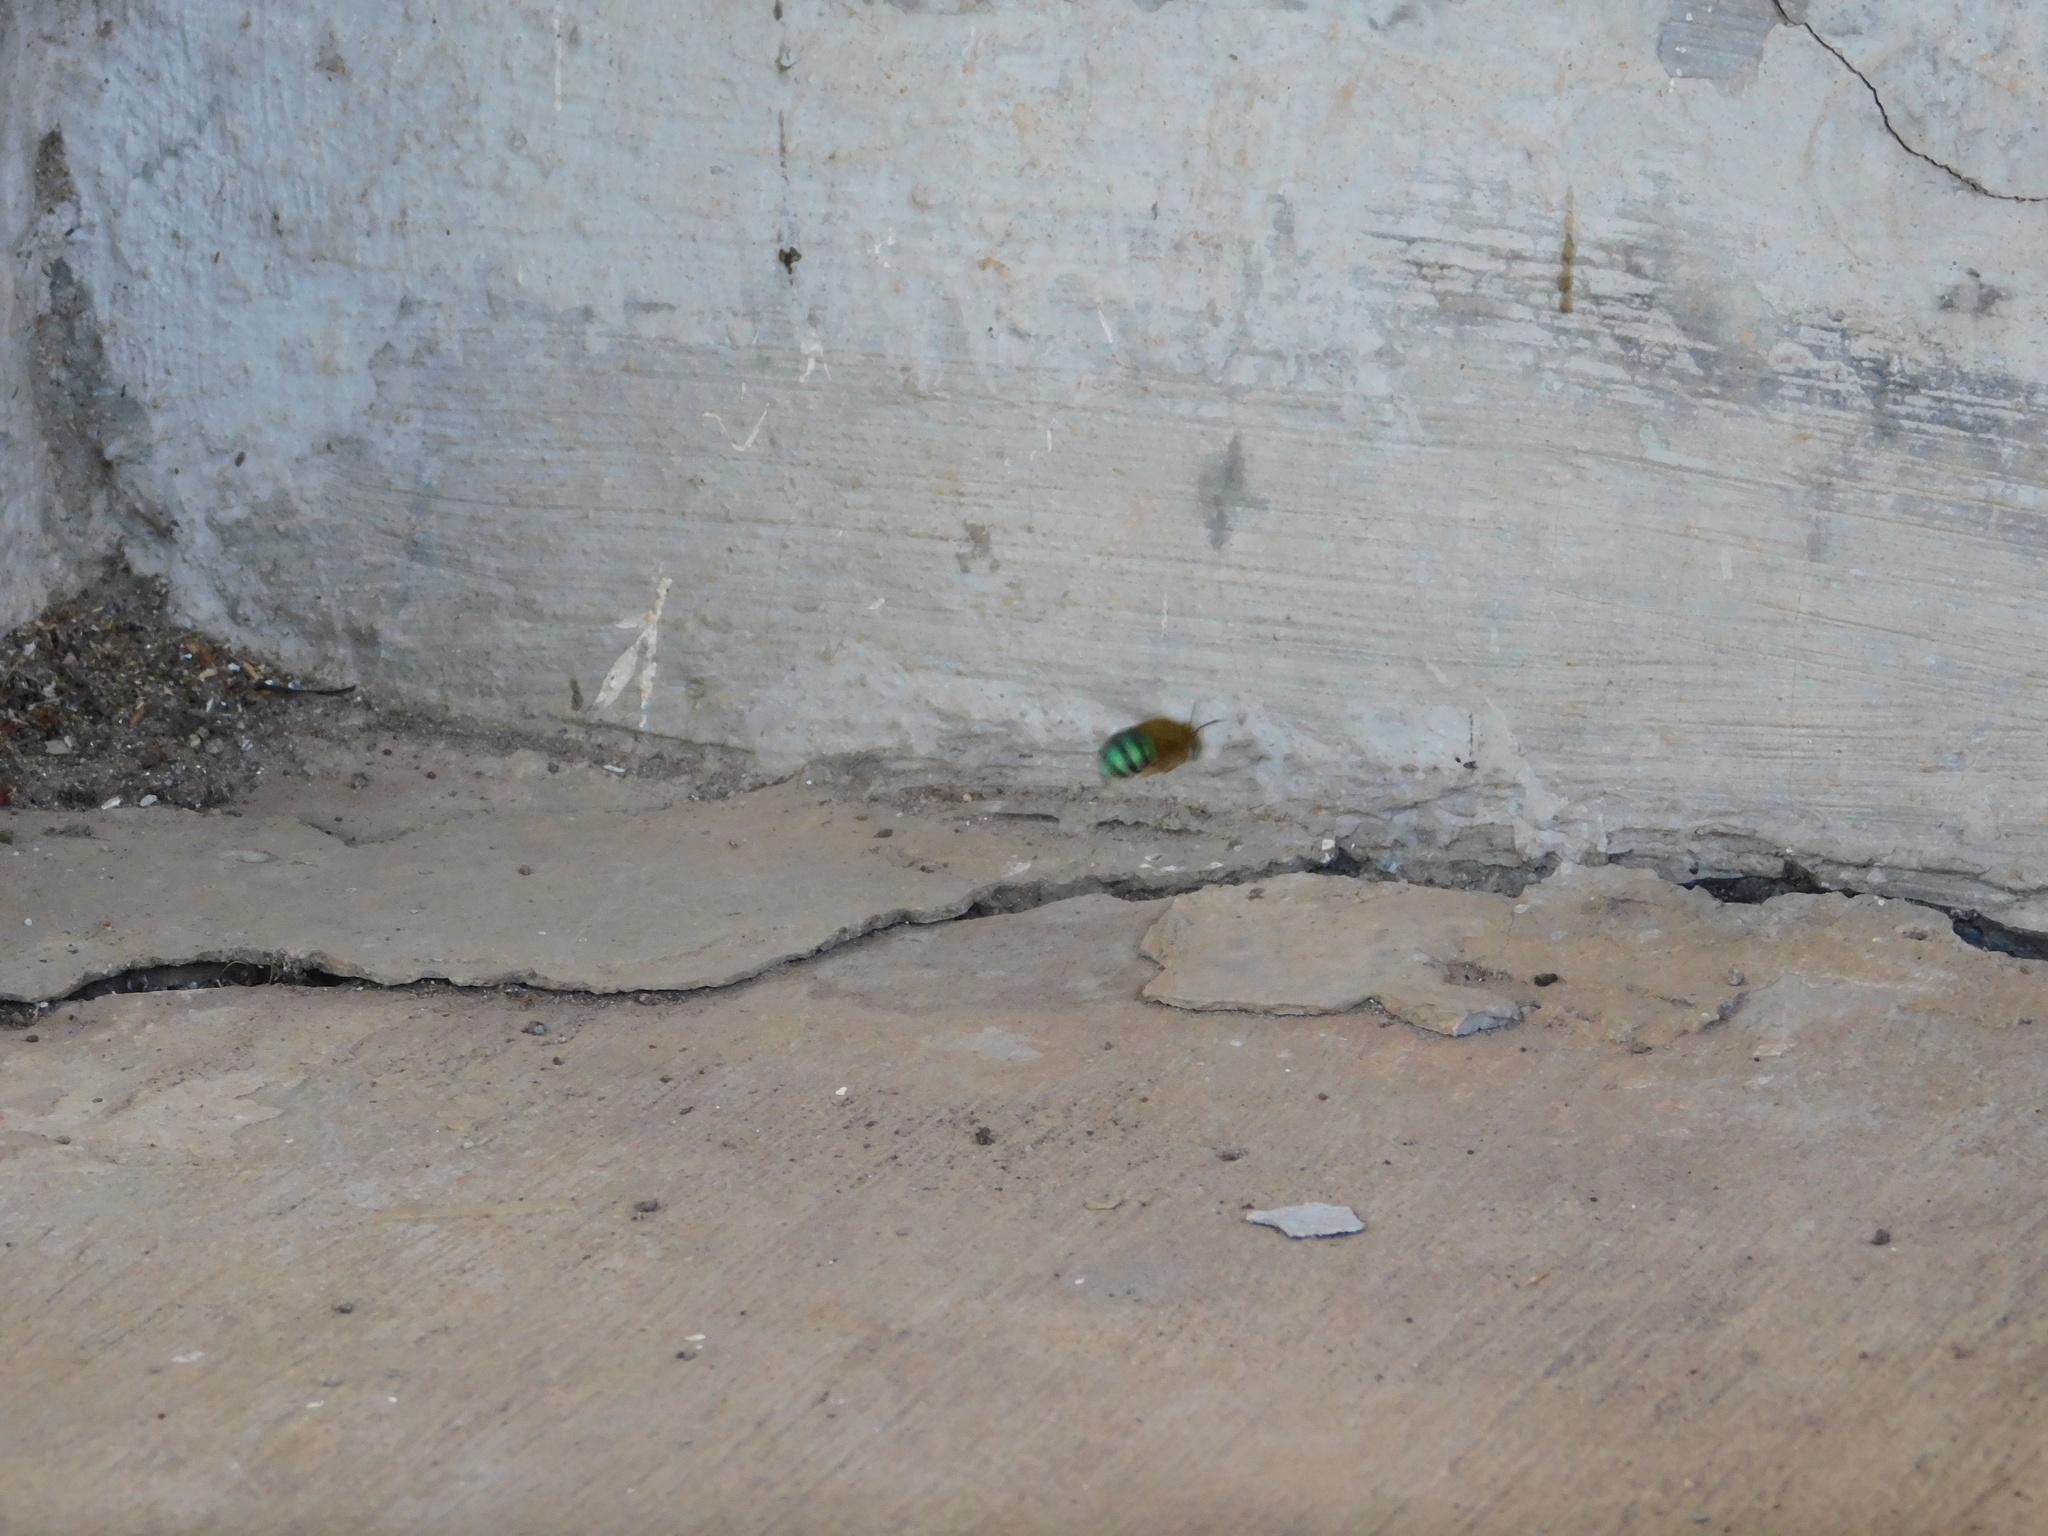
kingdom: Animalia
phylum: Arthropoda
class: Insecta
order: Hymenoptera
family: Apidae
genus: Amegilla
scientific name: Amegilla andrewsi
